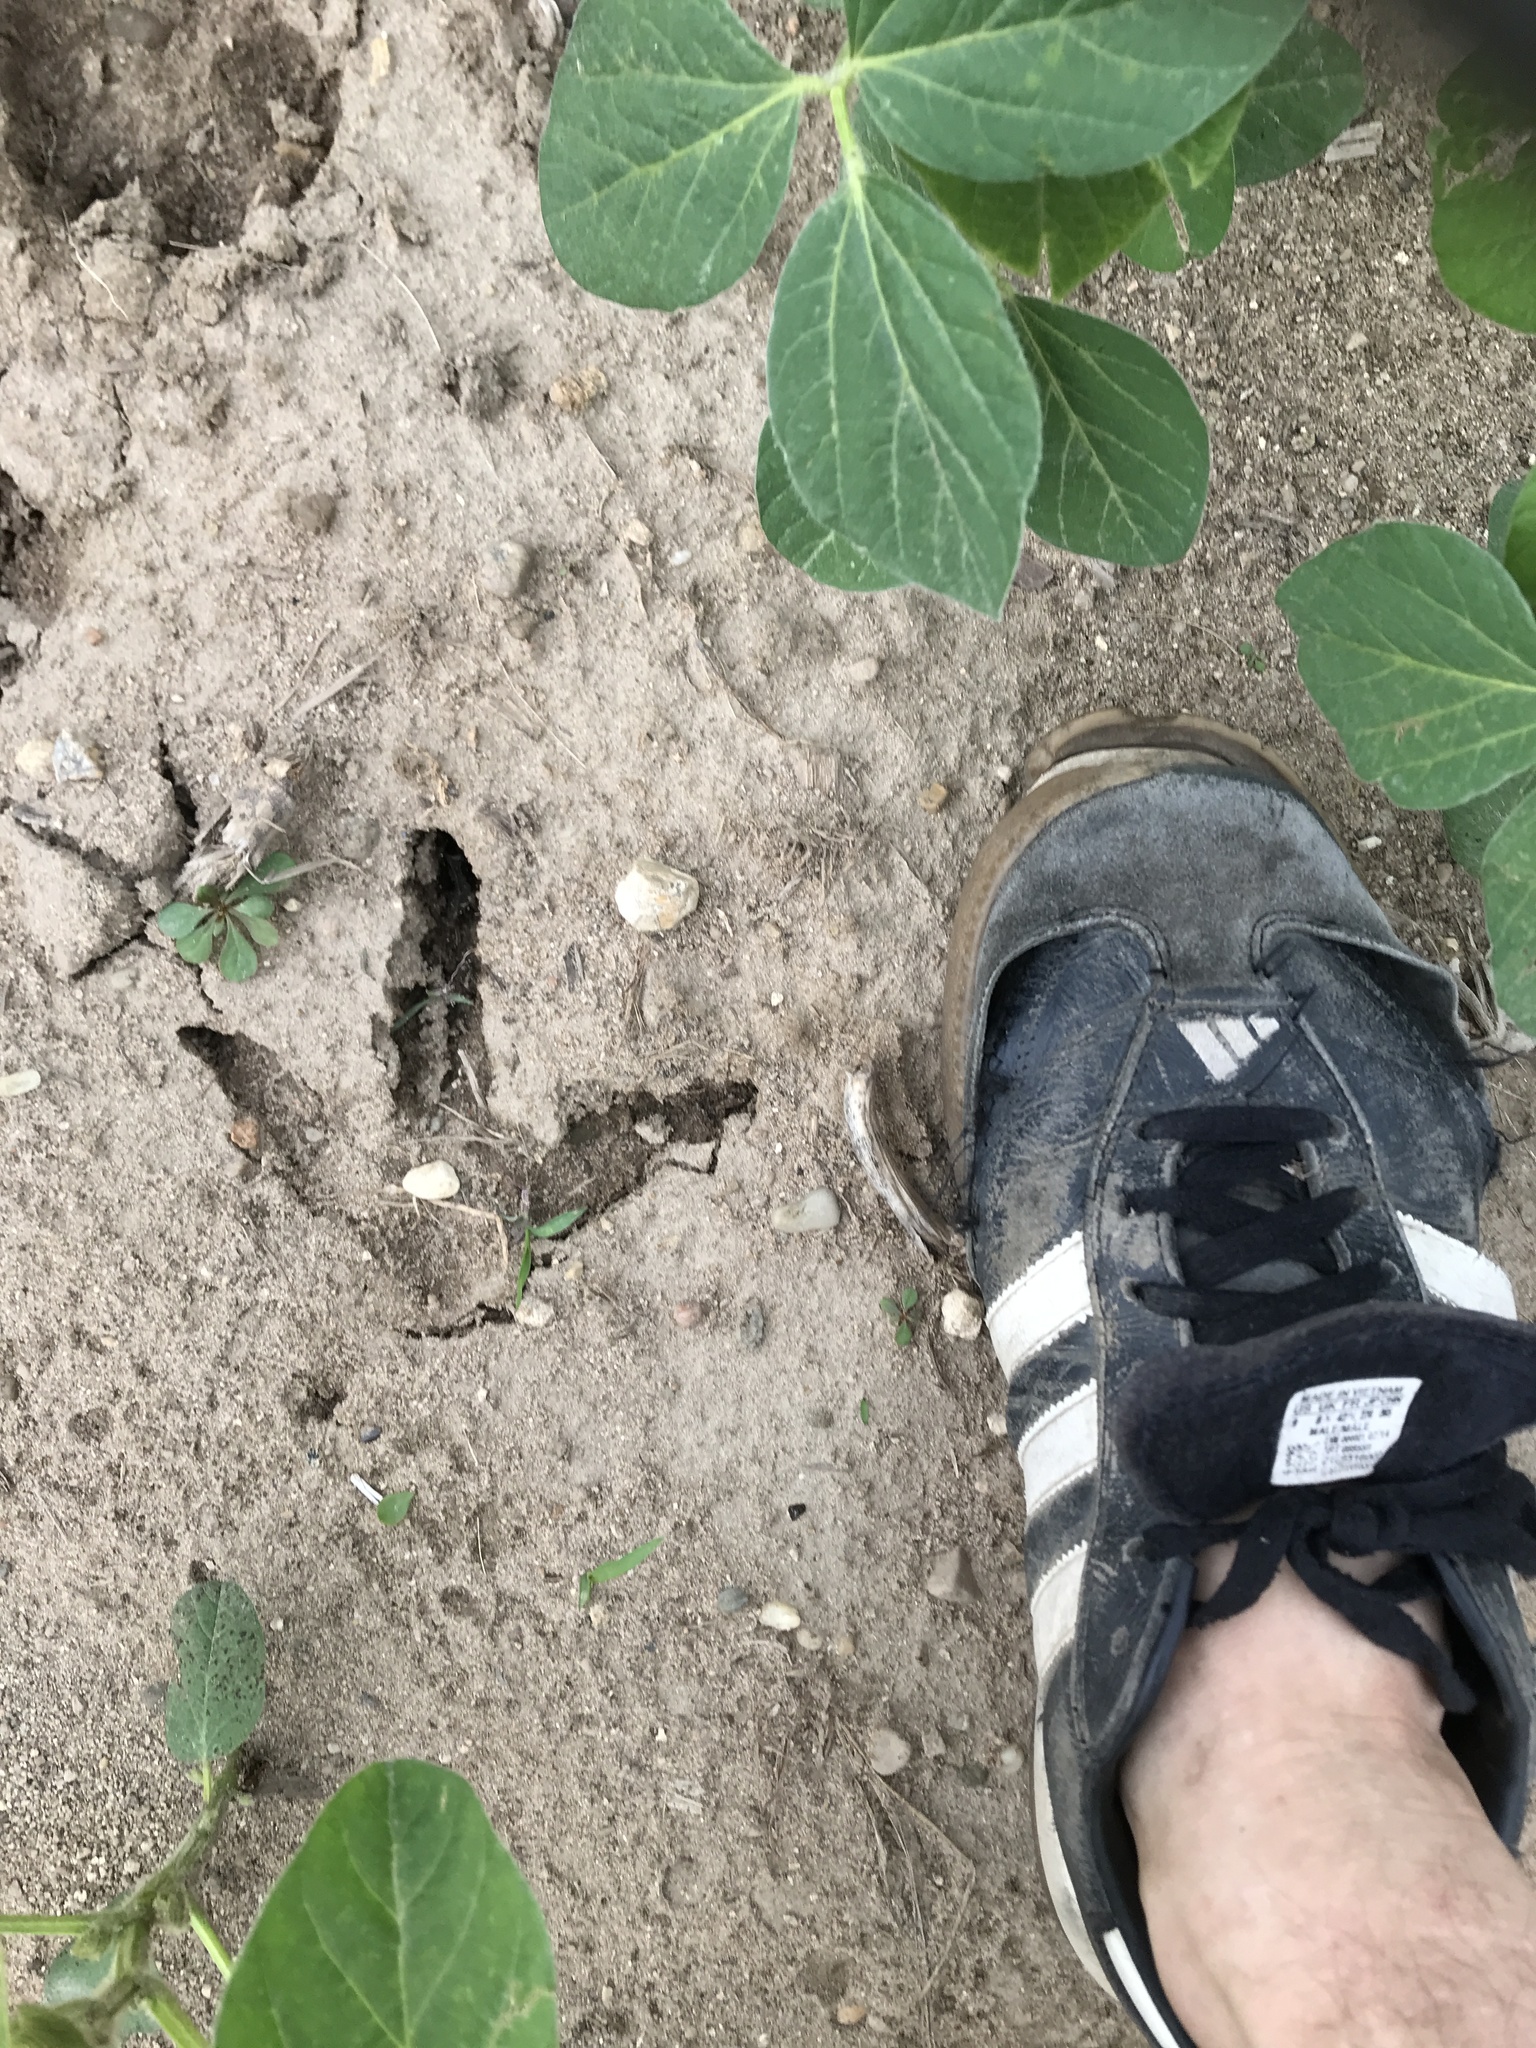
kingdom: Animalia
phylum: Chordata
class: Aves
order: Galliformes
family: Phasianidae
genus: Meleagris
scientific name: Meleagris gallopavo
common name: Wild turkey
